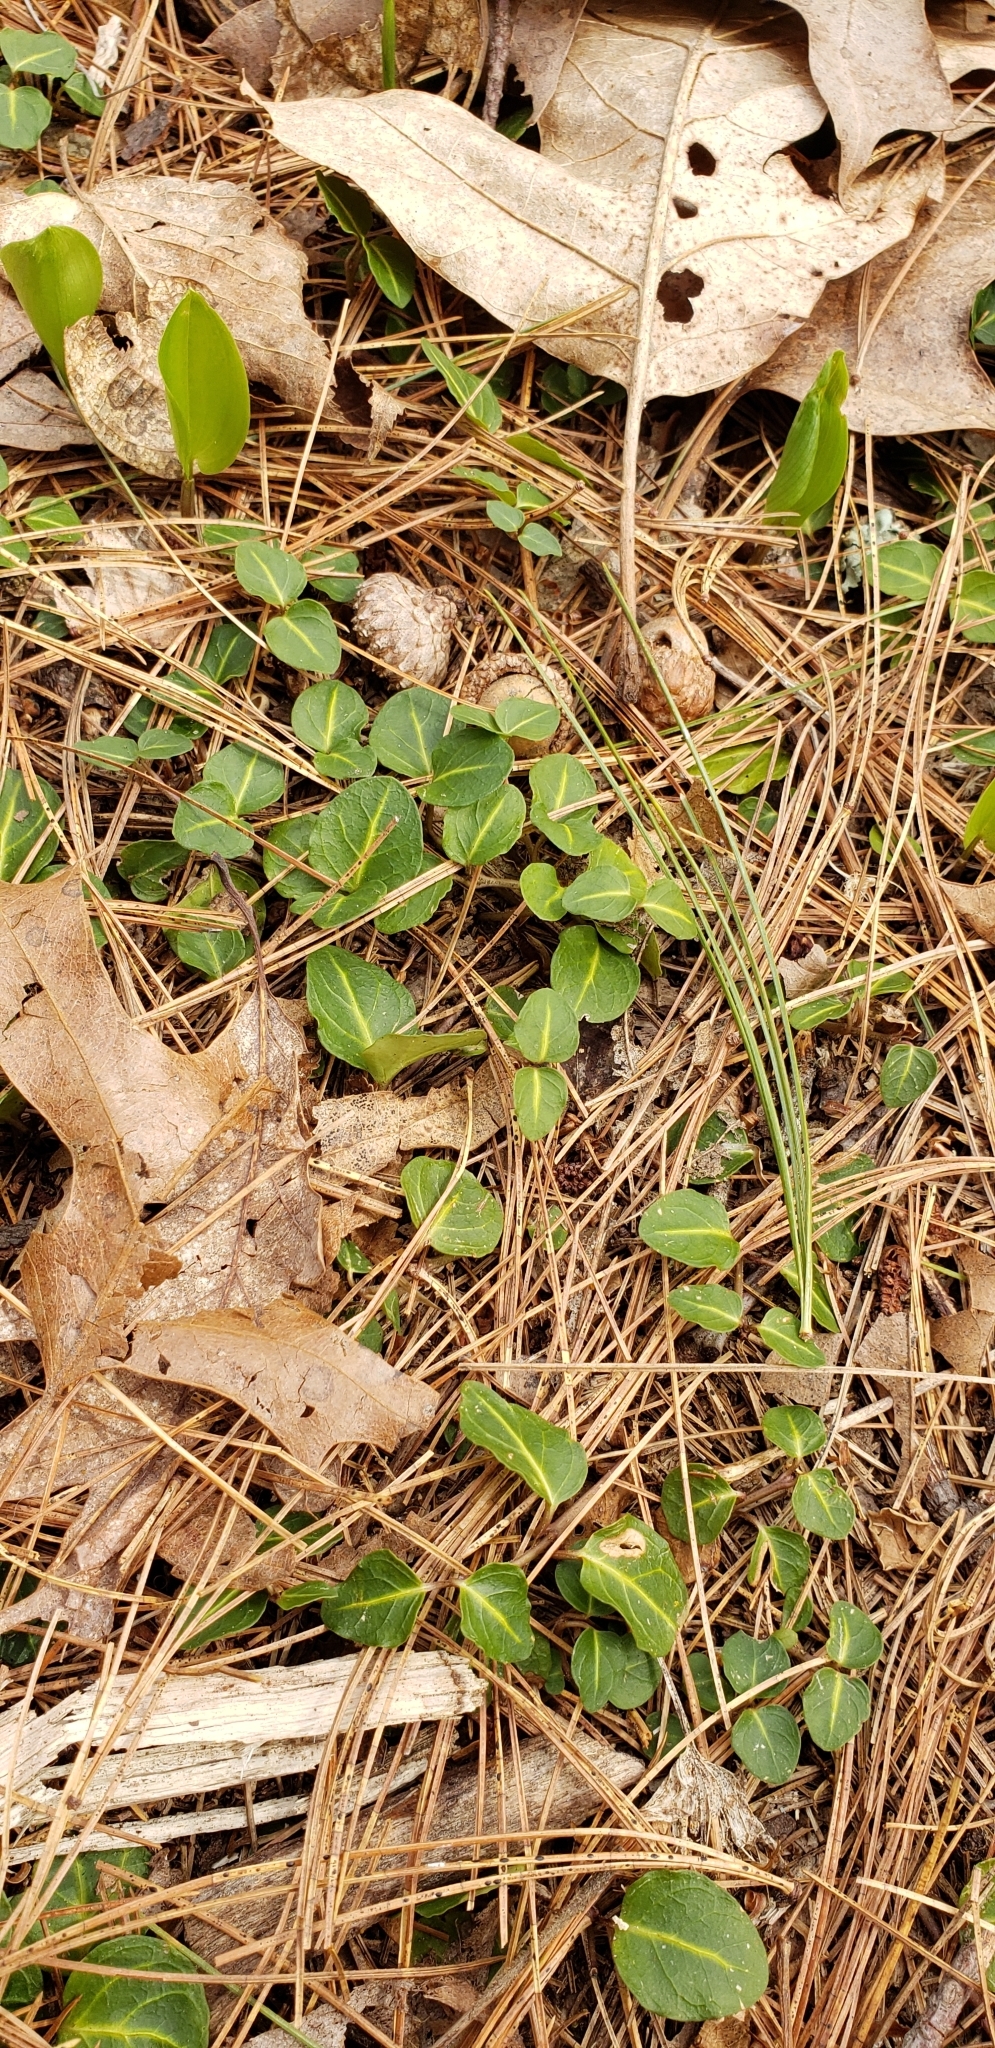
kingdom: Plantae
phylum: Tracheophyta
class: Magnoliopsida
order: Gentianales
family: Rubiaceae
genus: Mitchella
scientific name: Mitchella repens
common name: Partridge-berry
